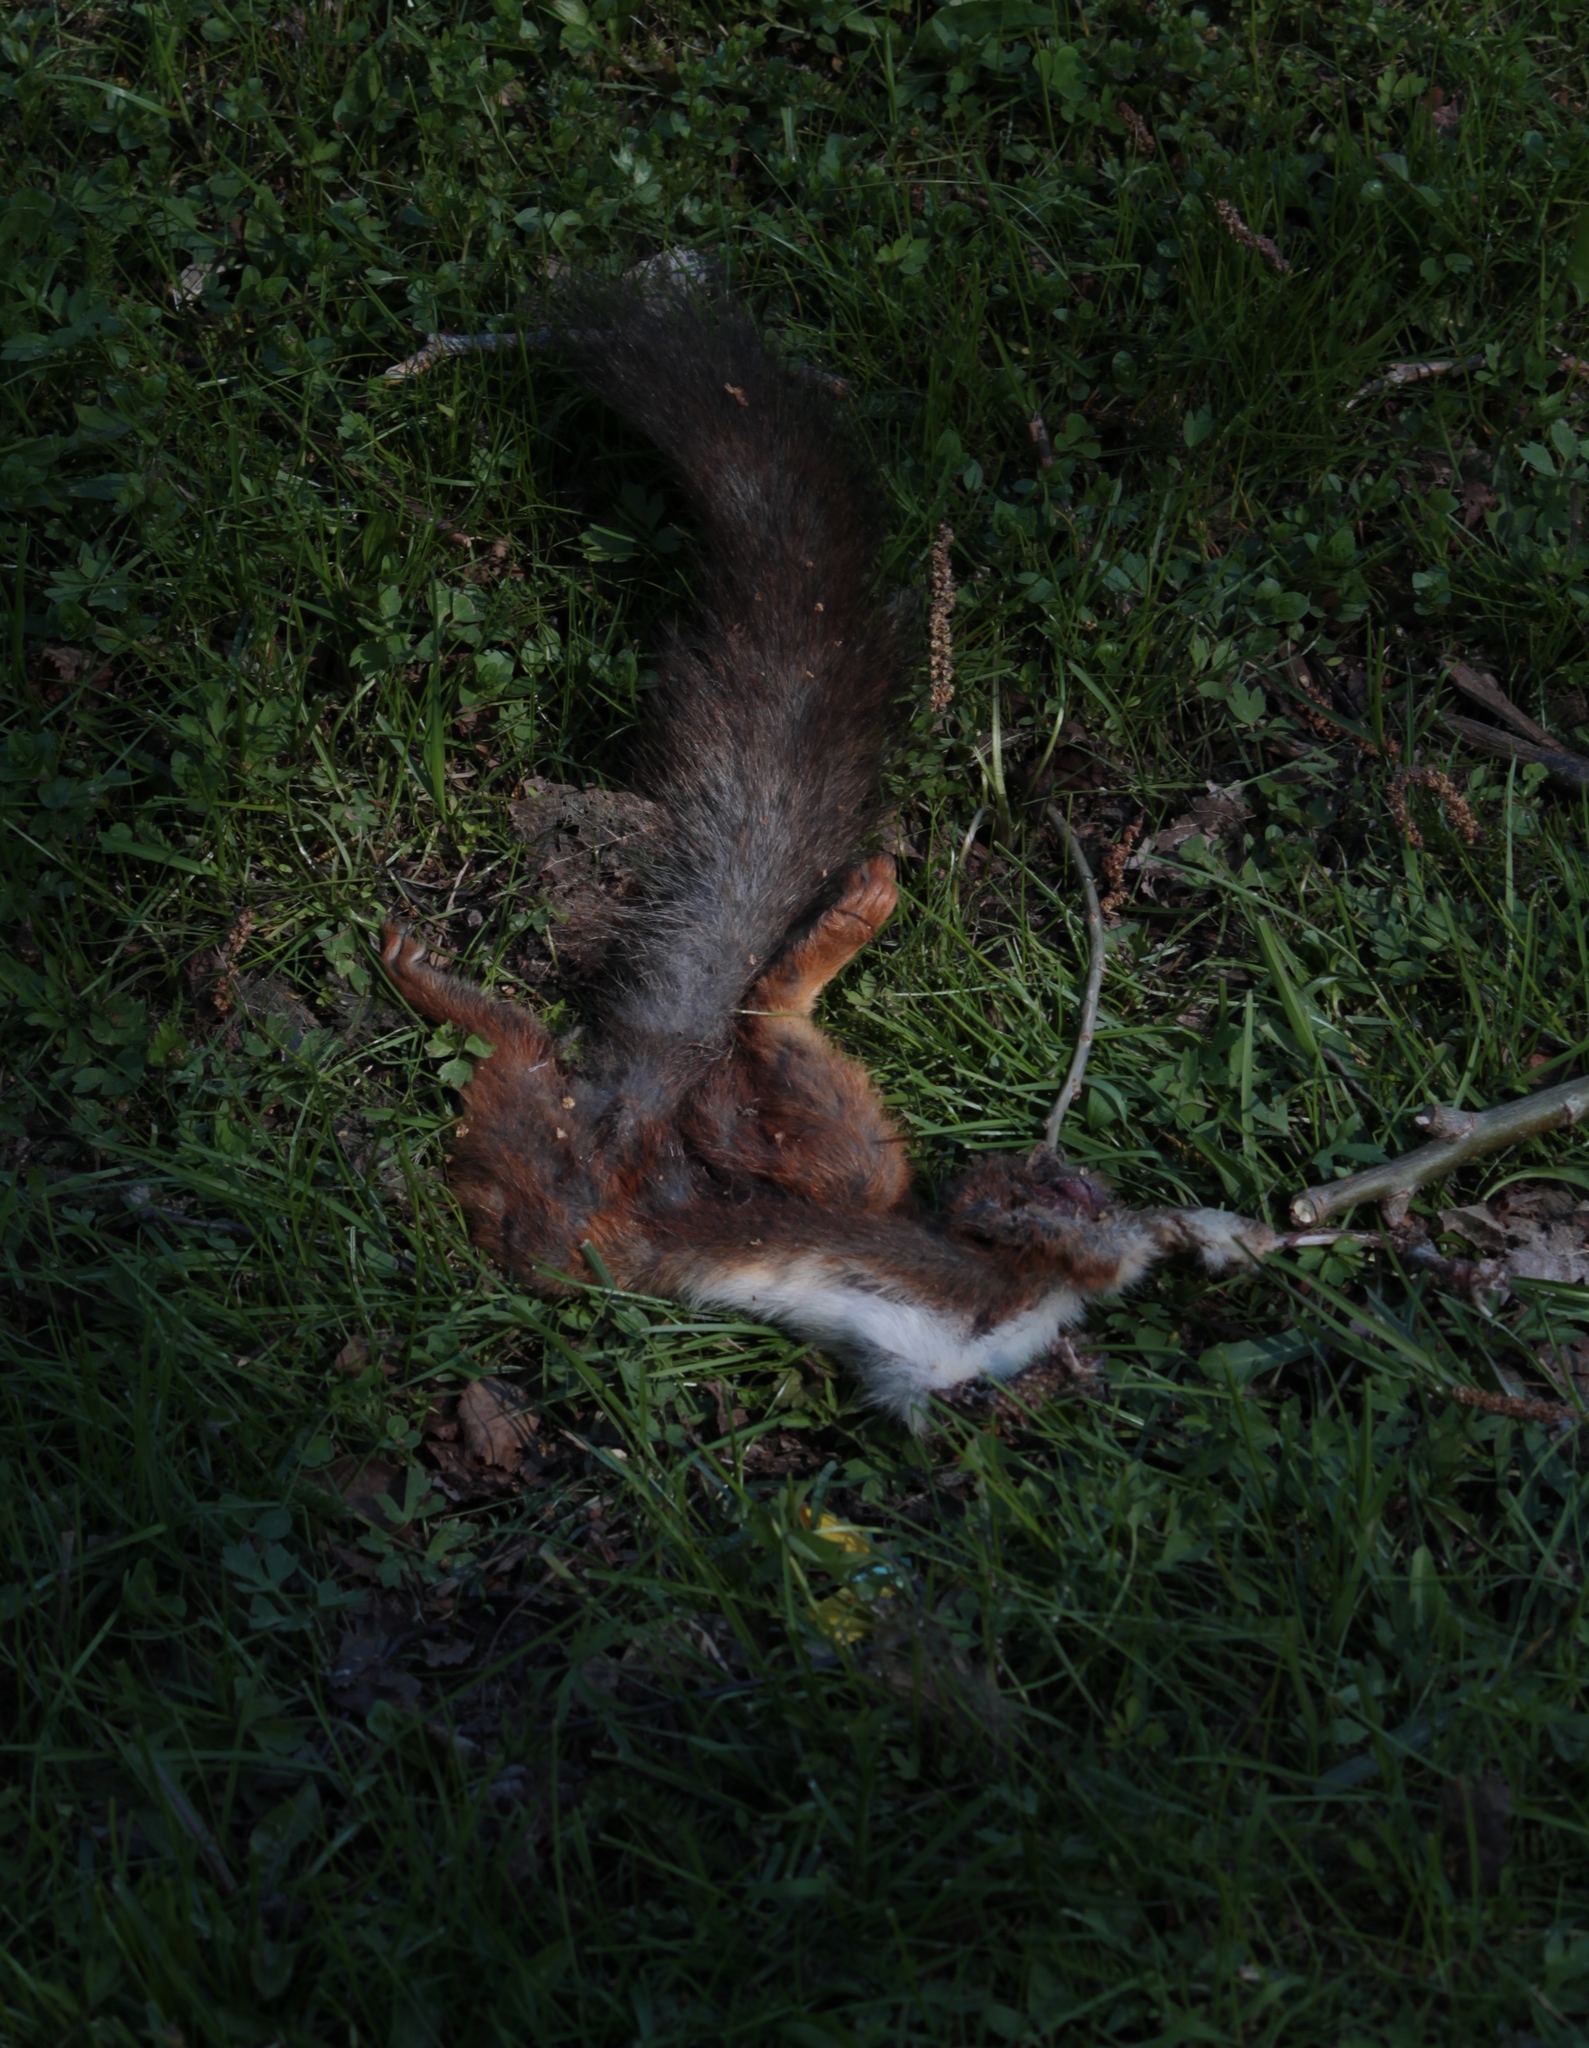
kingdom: Animalia
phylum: Chordata
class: Mammalia
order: Rodentia
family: Sciuridae
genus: Sciurus
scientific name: Sciurus vulgaris
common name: Eurasian red squirrel
